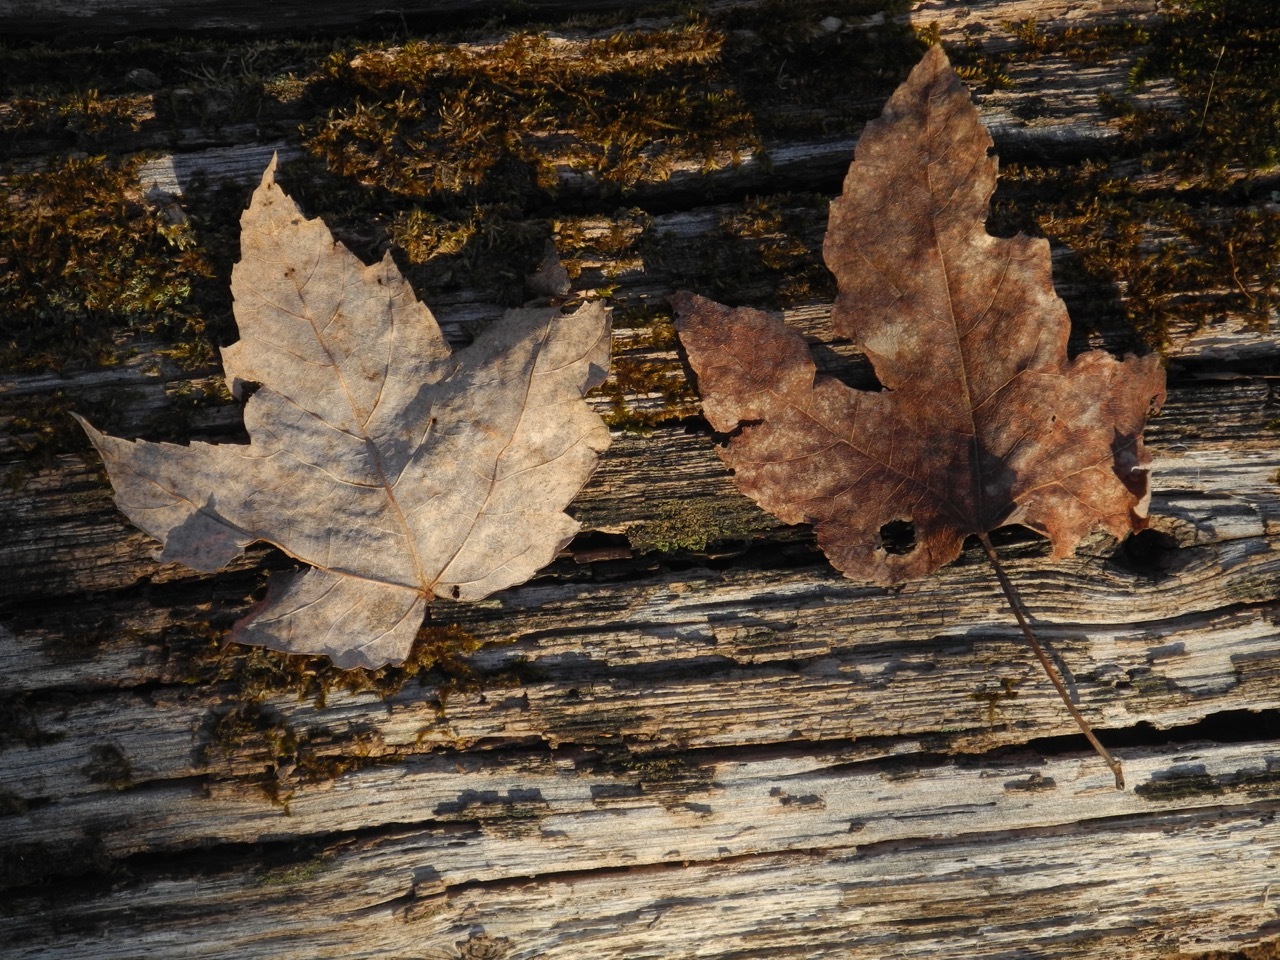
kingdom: Plantae
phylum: Tracheophyta
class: Magnoliopsida
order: Sapindales
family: Sapindaceae
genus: Acer
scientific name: Acer freemanii
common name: Freeman maple
